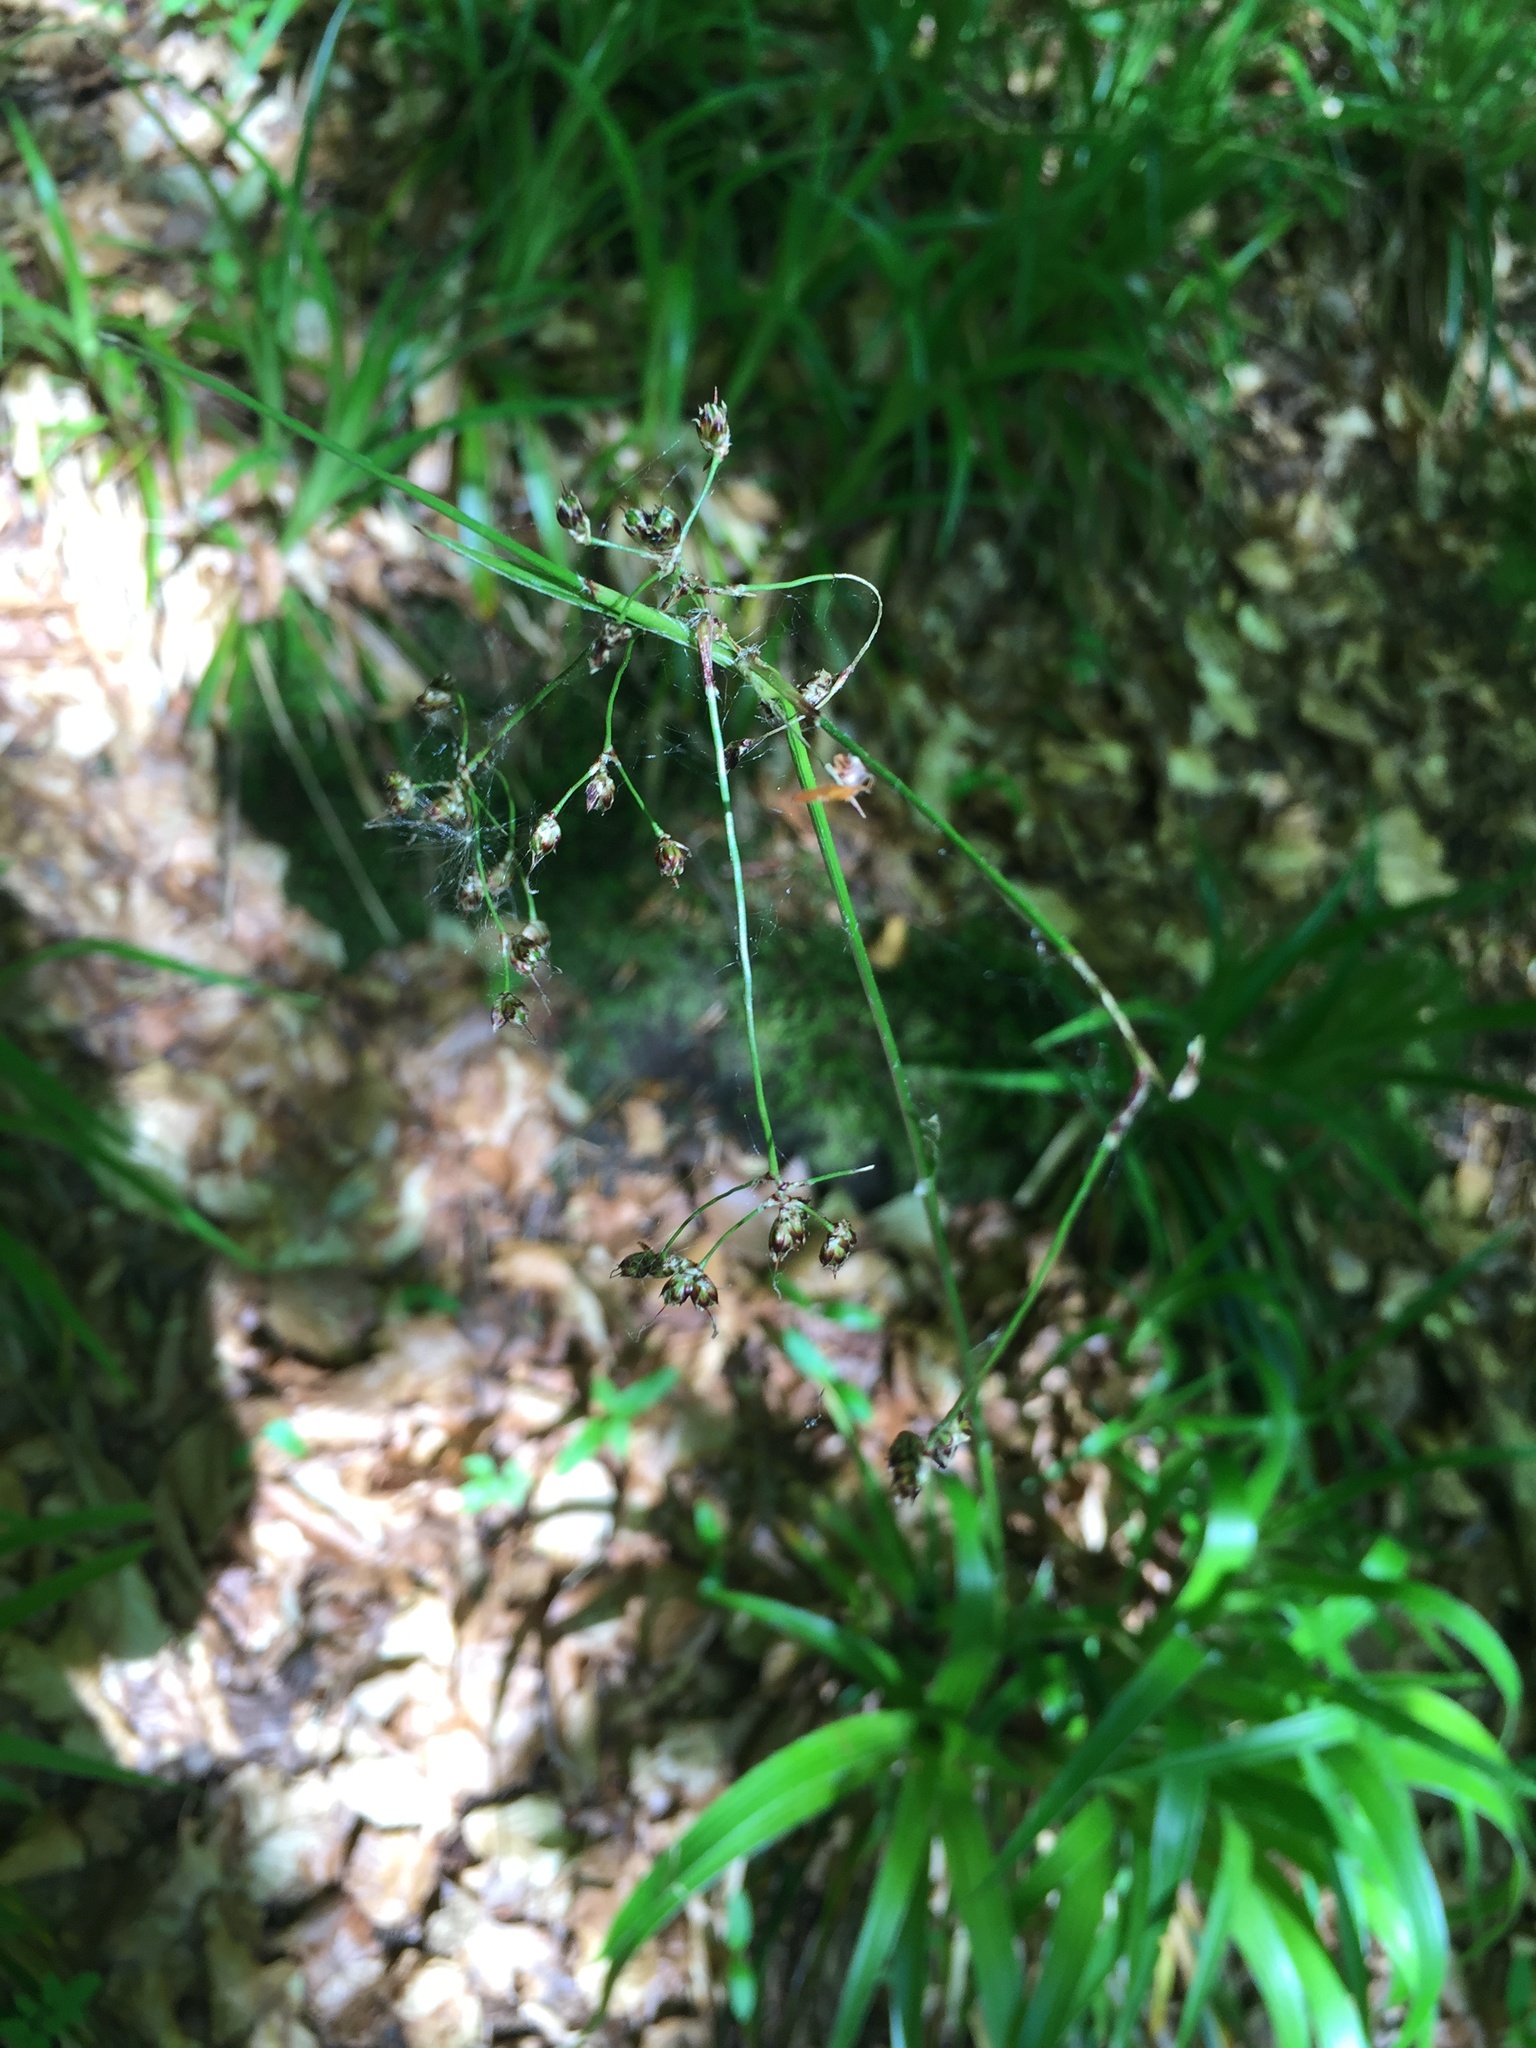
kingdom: Plantae
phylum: Tracheophyta
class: Liliopsida
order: Poales
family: Juncaceae
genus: Luzula
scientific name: Luzula sylvatica
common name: Great wood-rush
